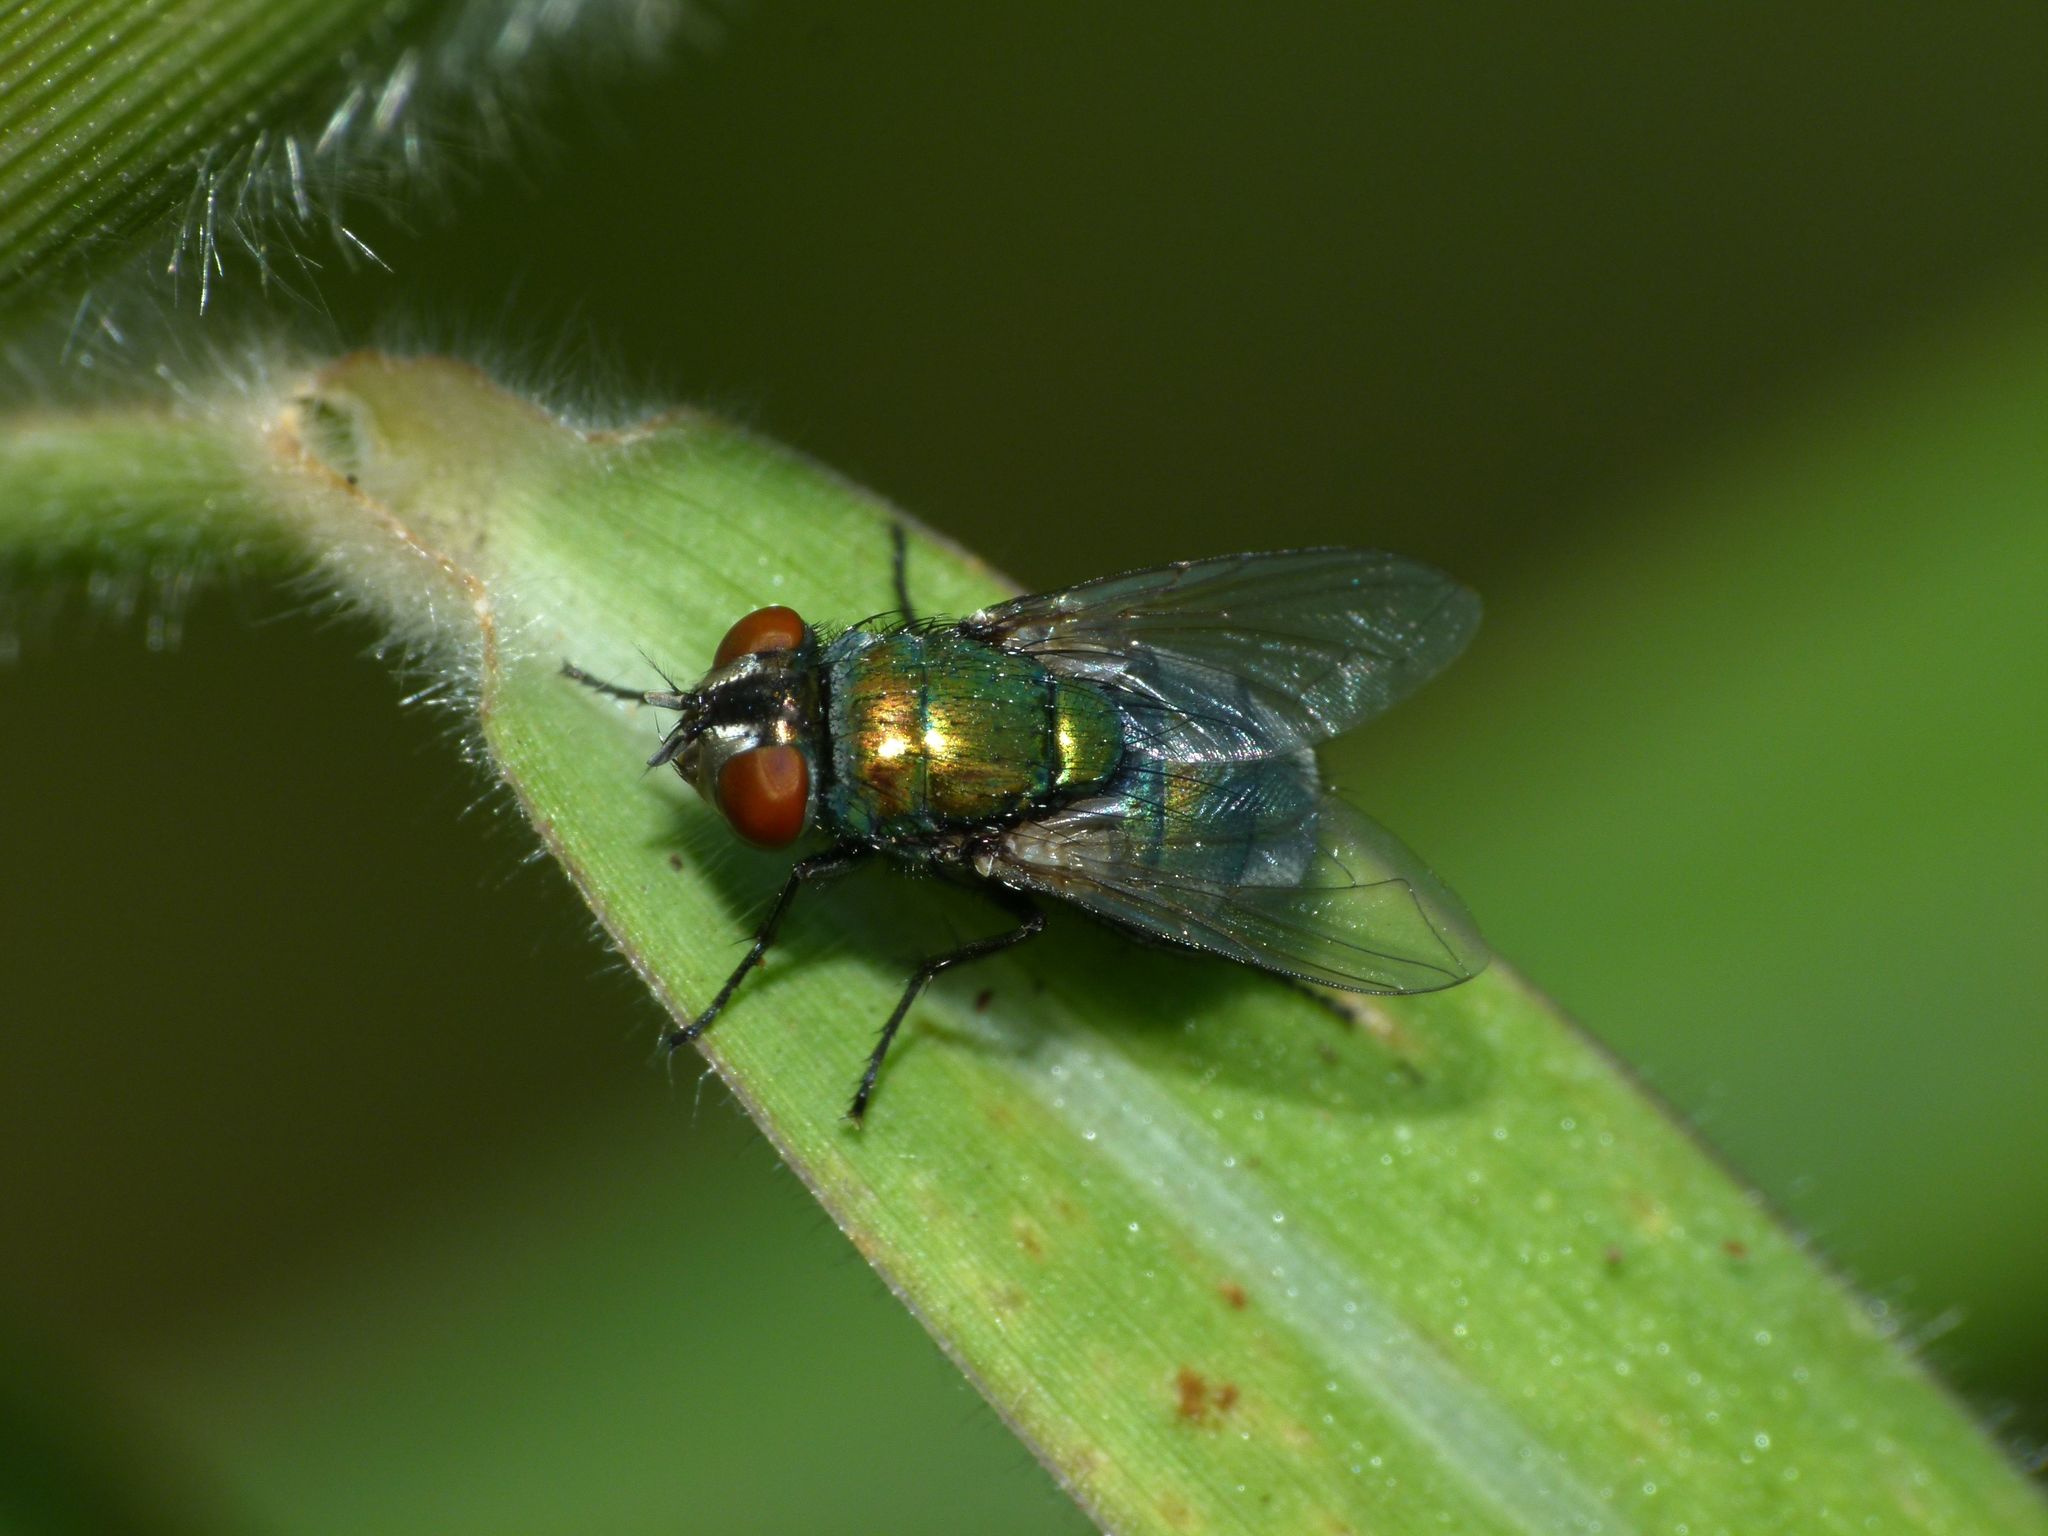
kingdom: Animalia
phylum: Arthropoda
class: Insecta
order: Diptera
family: Calliphoridae
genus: Lucilia
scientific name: Lucilia sericata
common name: Blow fly
